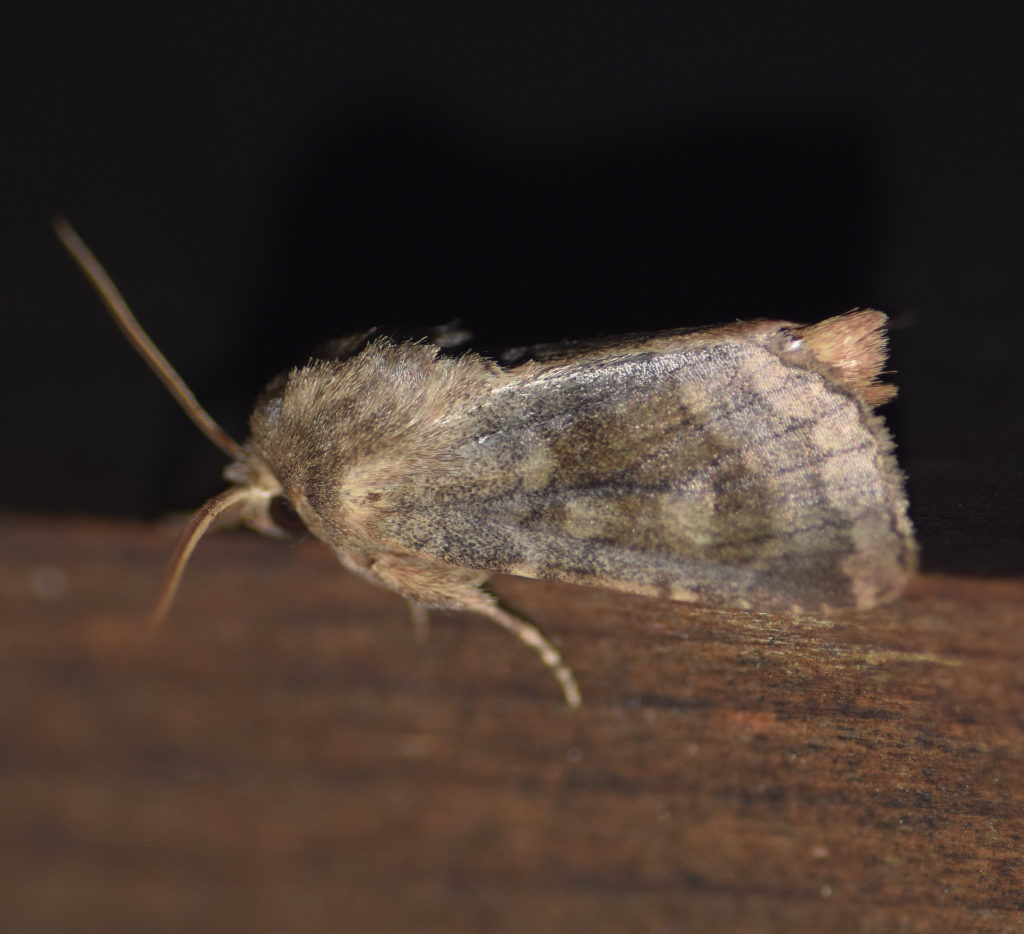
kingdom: Animalia
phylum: Arthropoda
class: Insecta
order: Lepidoptera
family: Noctuidae
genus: Nephelodes
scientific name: Nephelodes minians
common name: Bronzed cutworm
